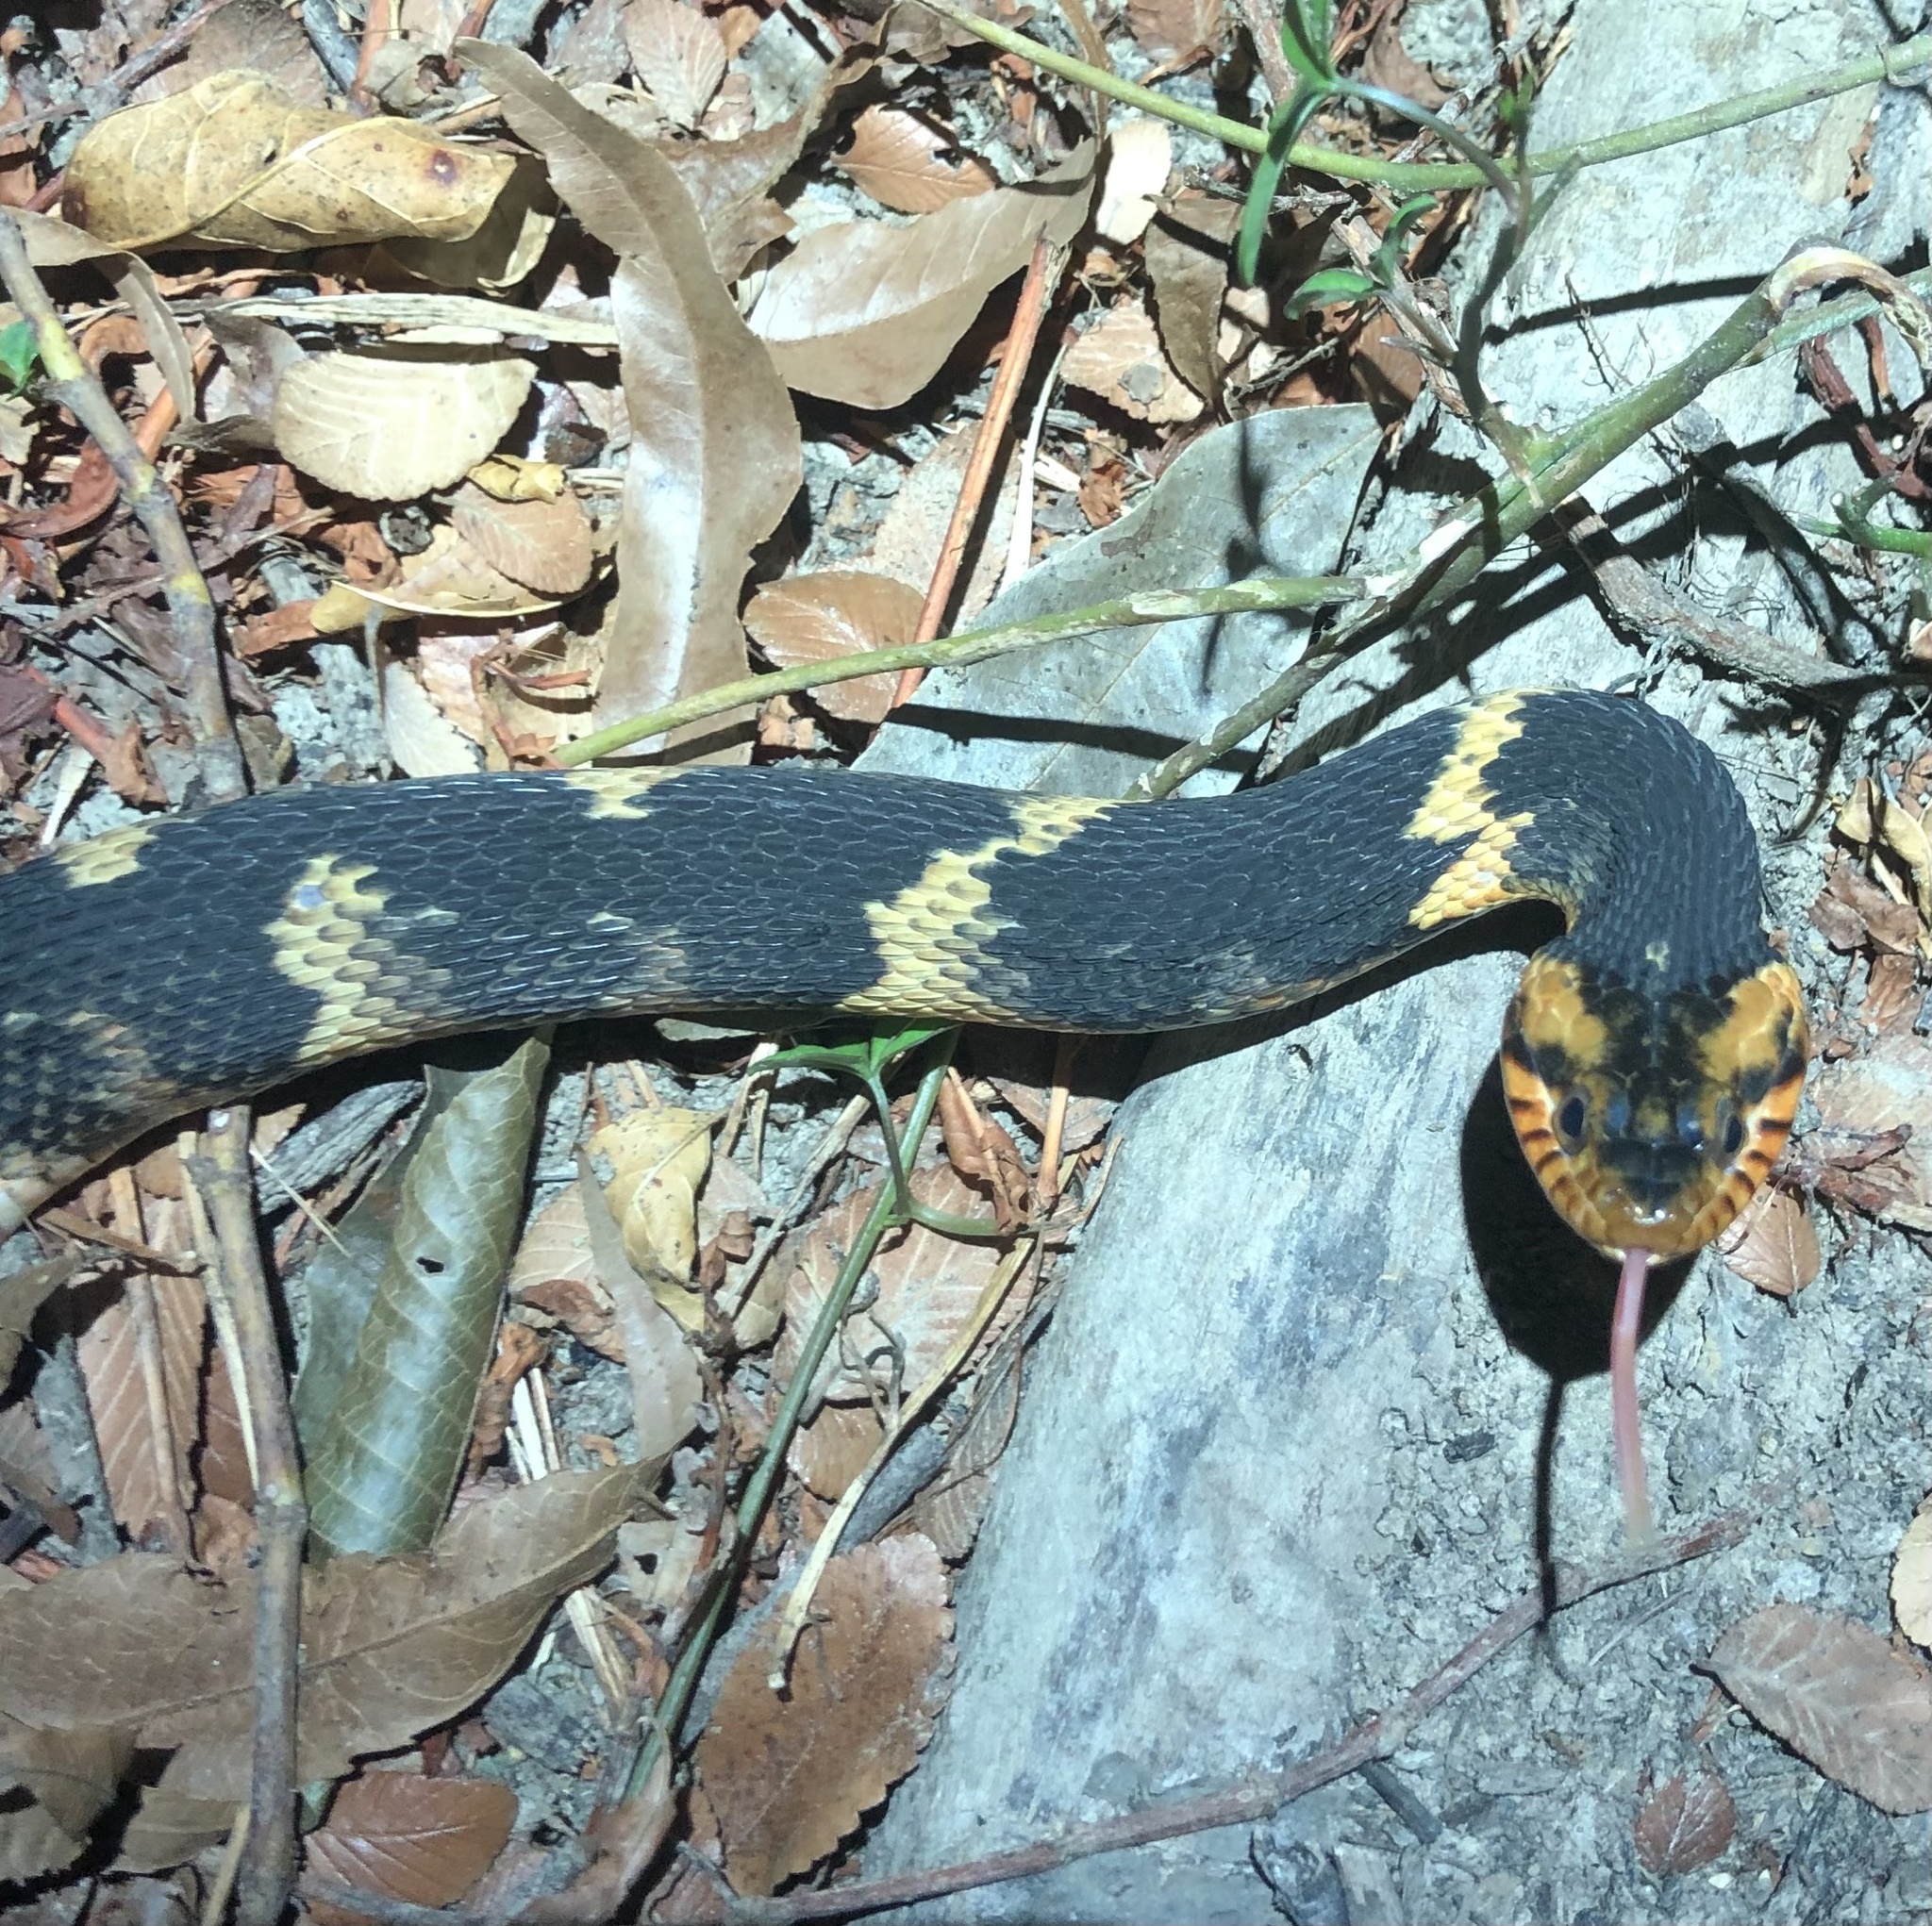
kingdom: Animalia
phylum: Chordata
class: Squamata
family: Colubridae
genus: Nerodia
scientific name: Nerodia fasciata
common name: Southern water snake
